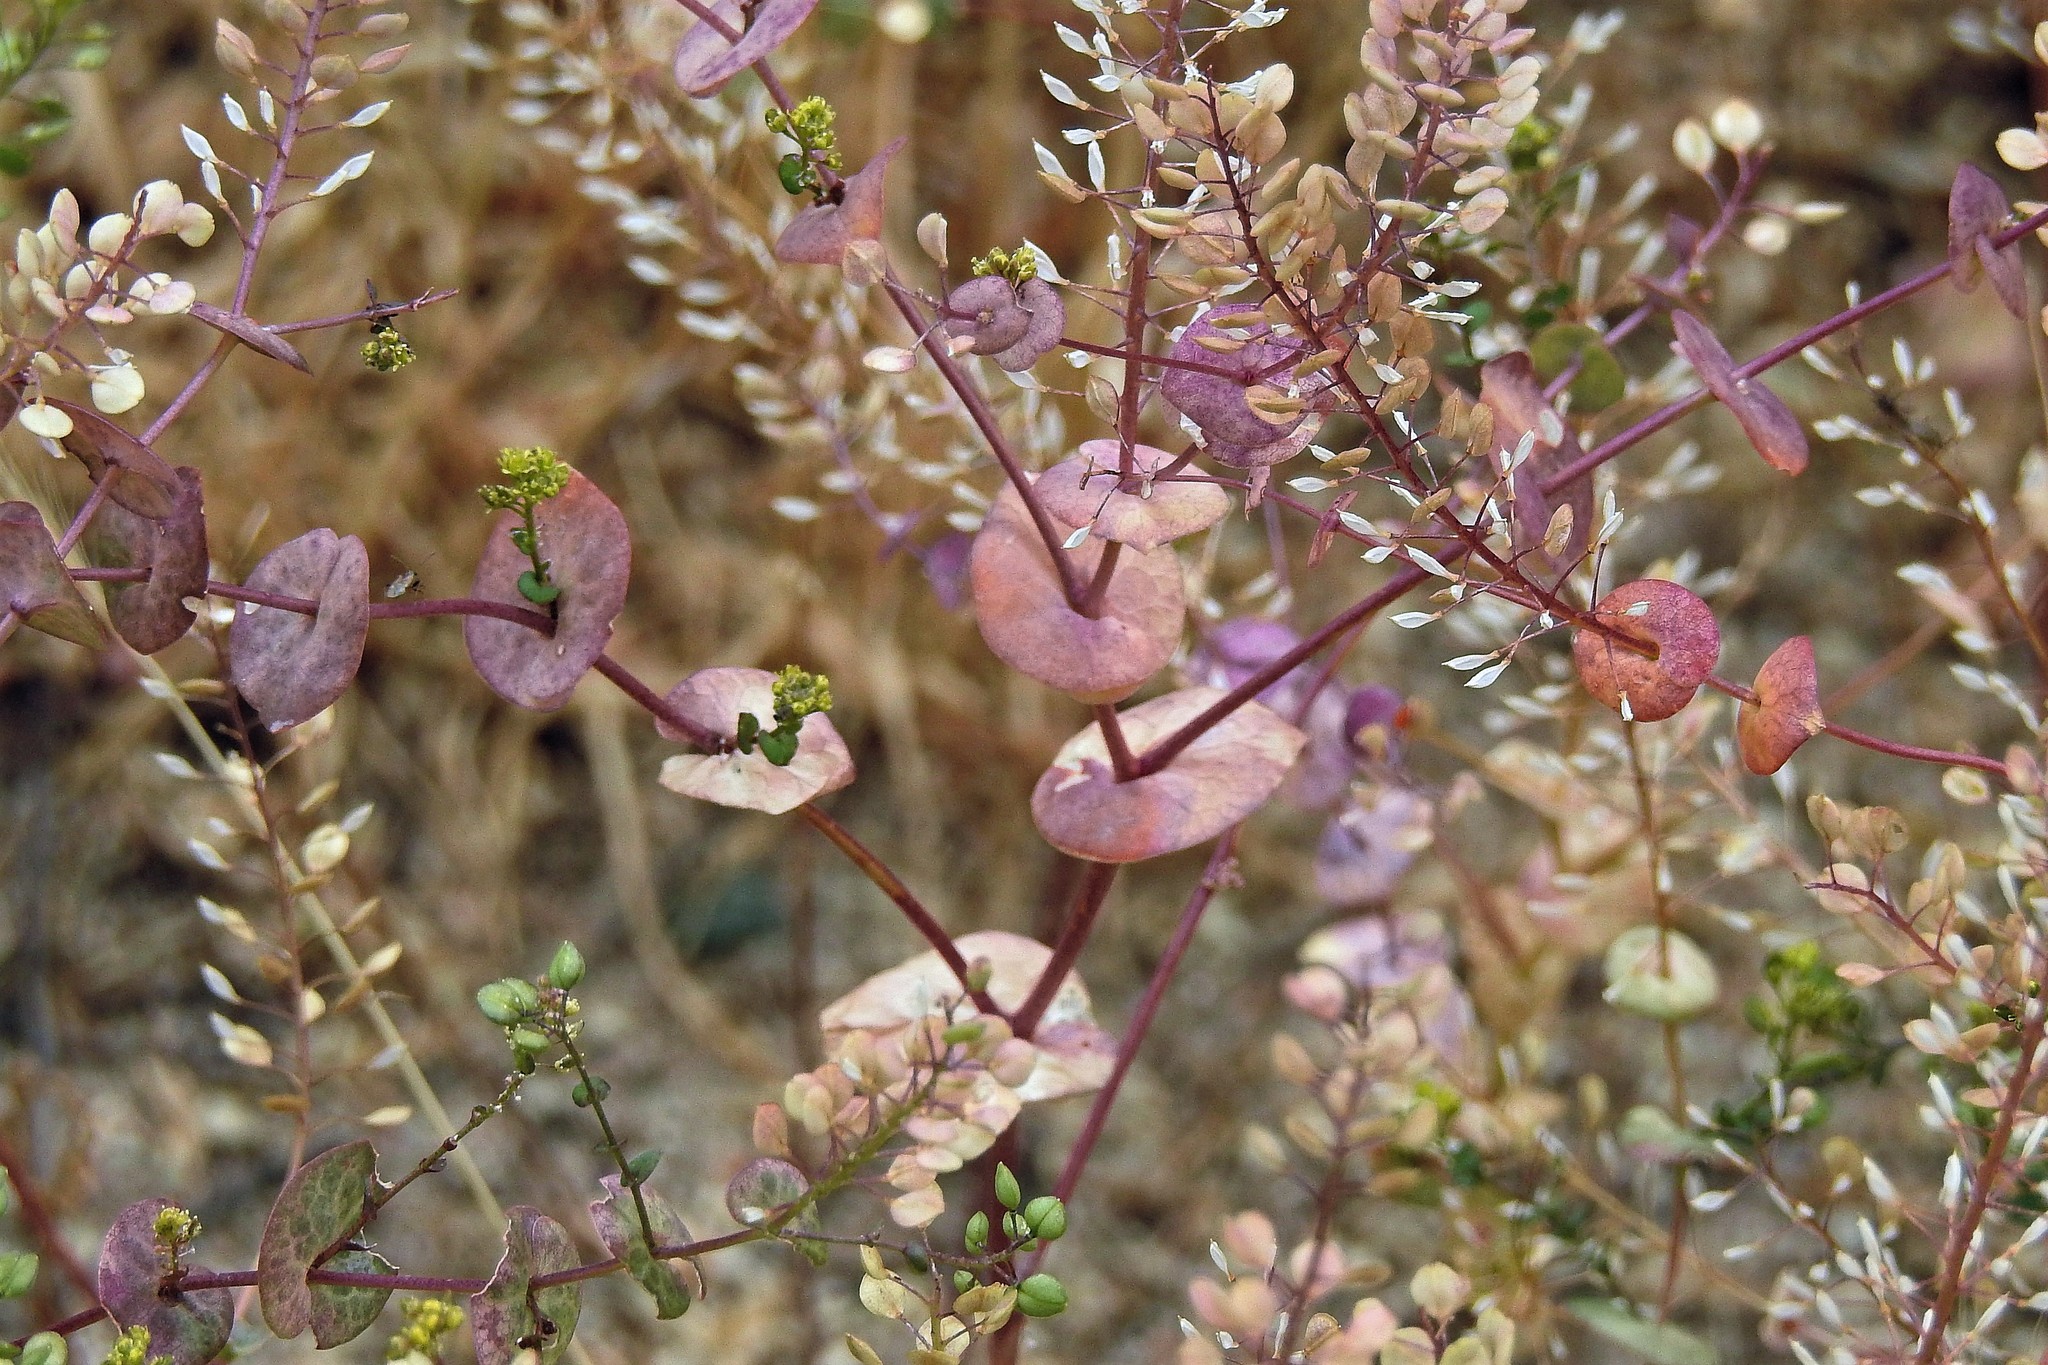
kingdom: Plantae
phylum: Tracheophyta
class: Magnoliopsida
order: Brassicales
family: Brassicaceae
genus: Lepidium
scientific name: Lepidium perfoliatum
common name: Perfoliate pepperwort
